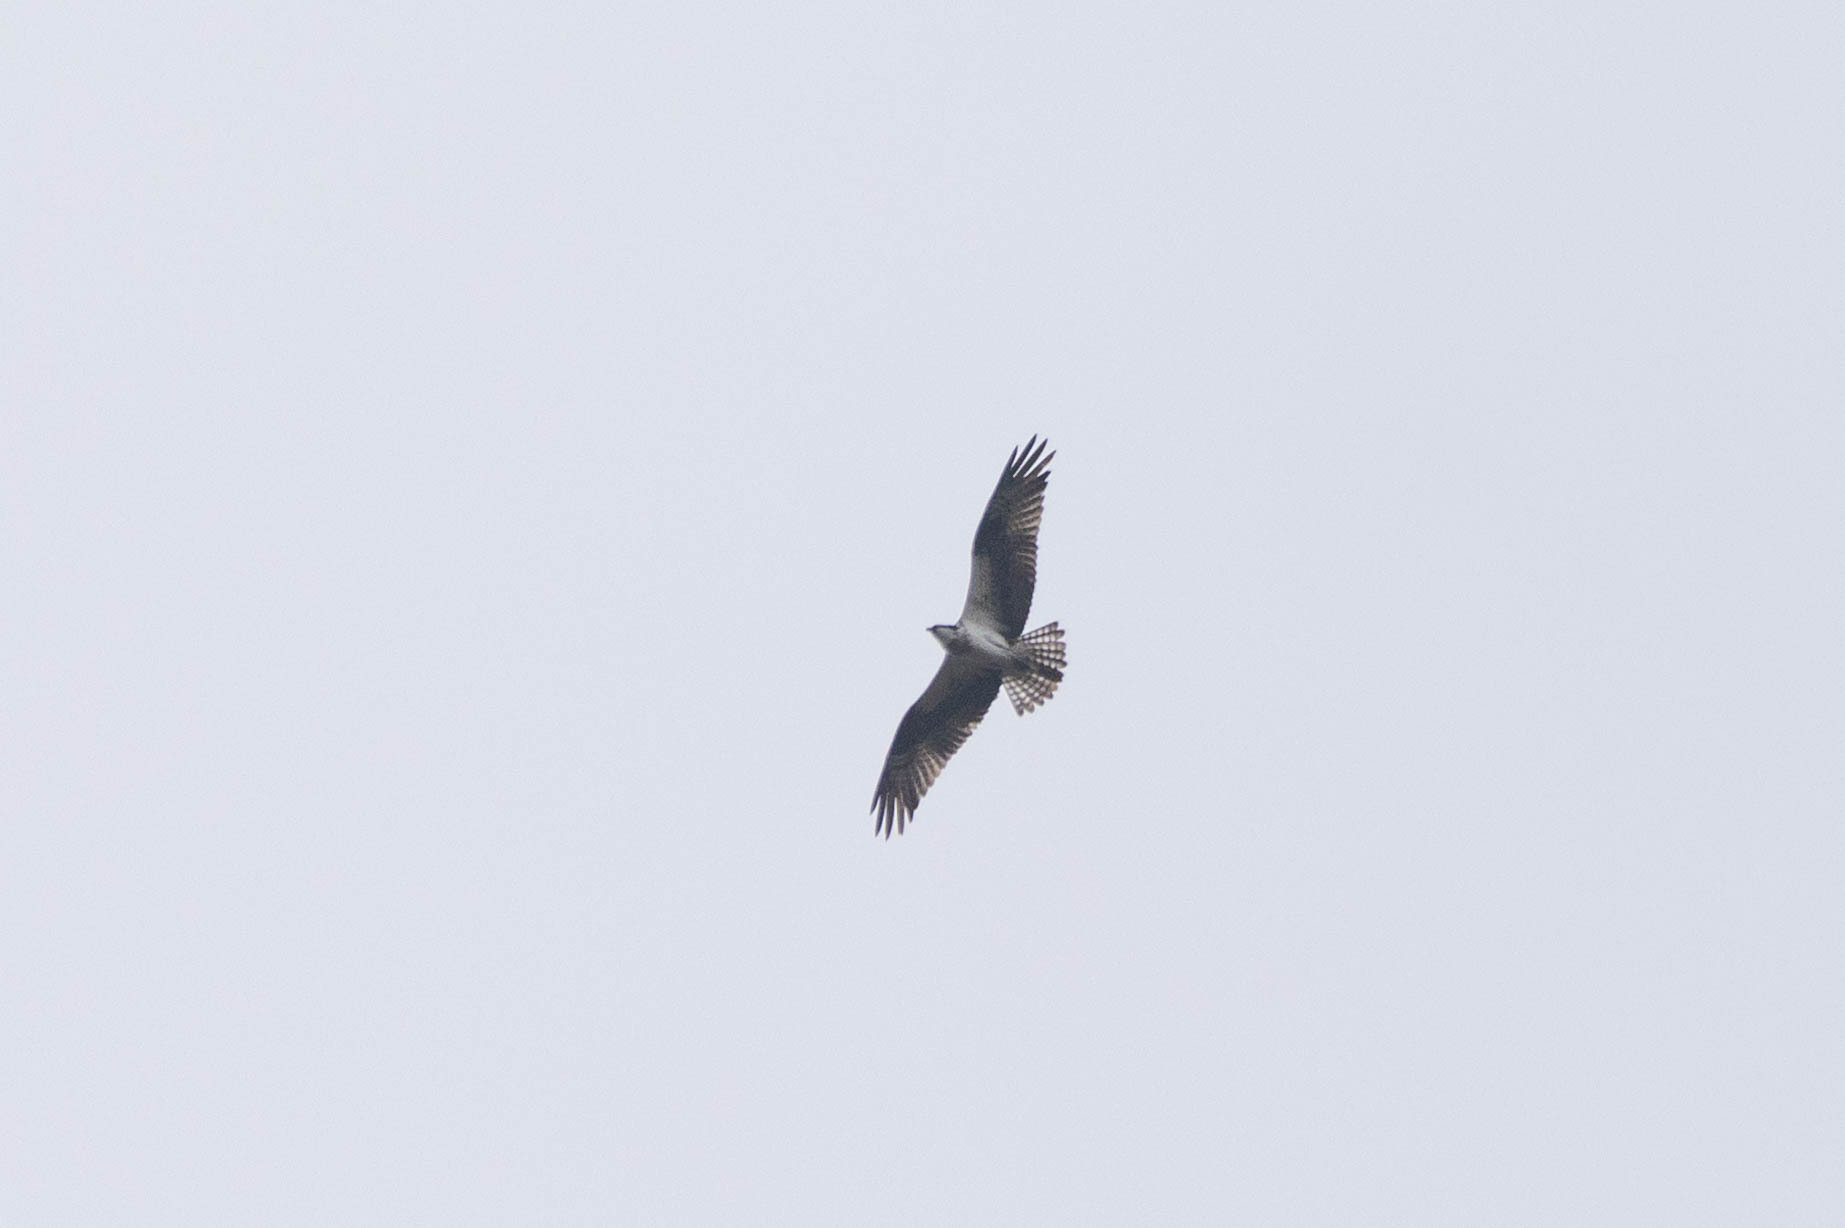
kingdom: Animalia
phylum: Chordata
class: Aves
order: Accipitriformes
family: Pandionidae
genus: Pandion
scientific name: Pandion haliaetus
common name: Osprey
